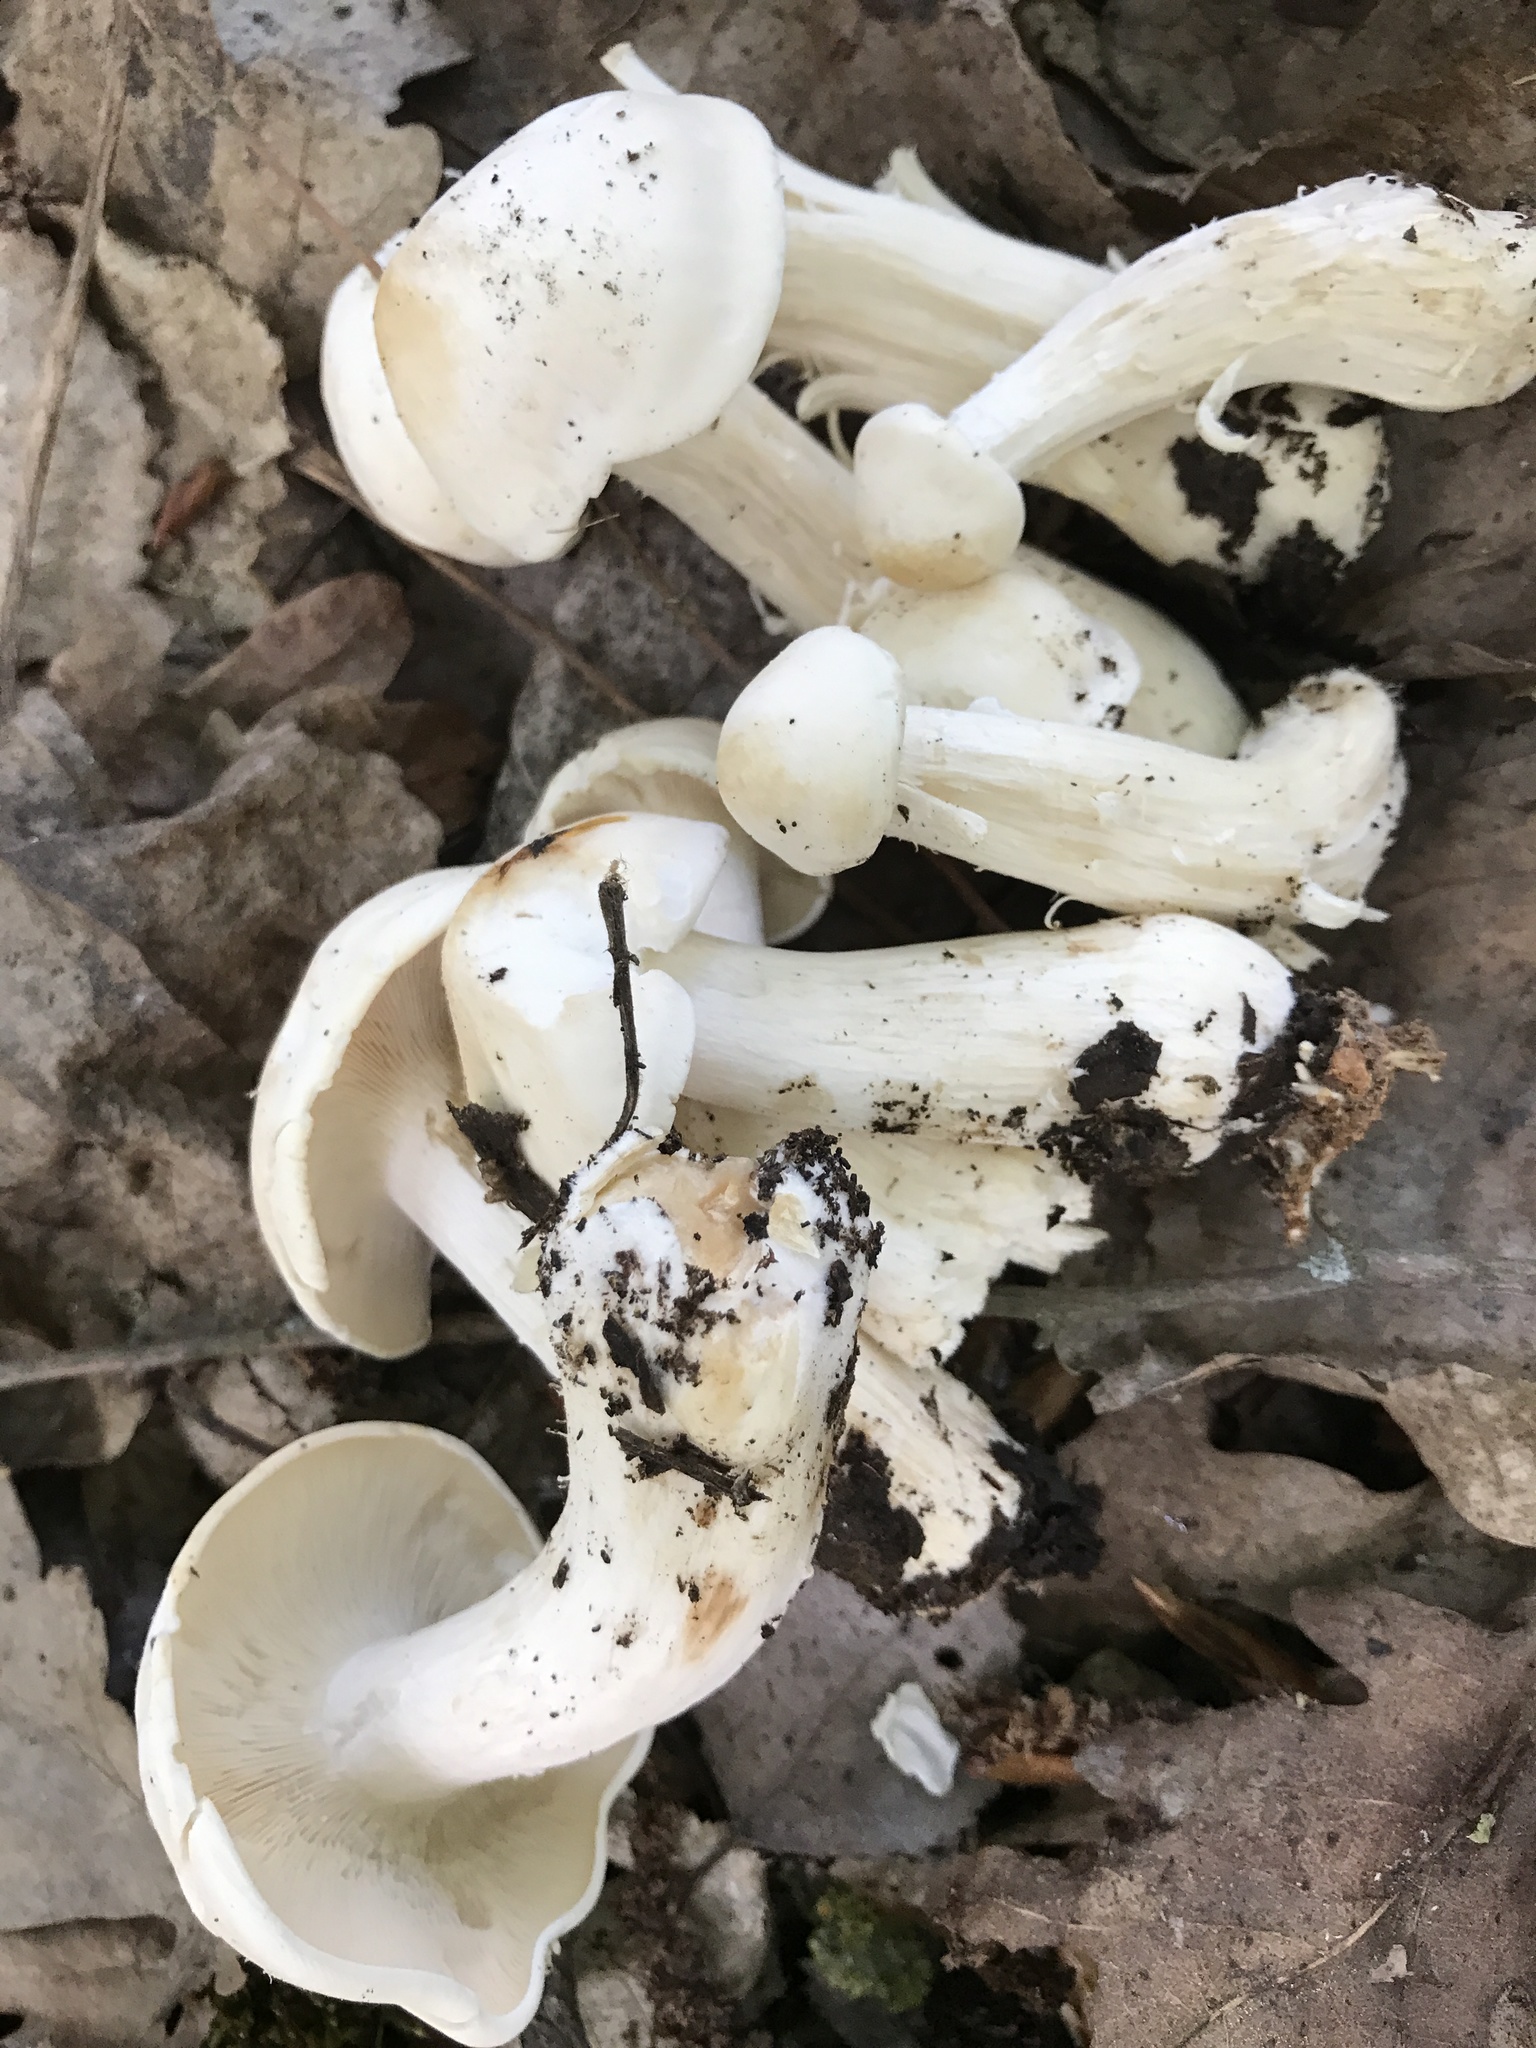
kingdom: Fungi
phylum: Basidiomycota
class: Agaricomycetes
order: Agaricales
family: Lyophyllaceae
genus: Calocybe
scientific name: Calocybe gambosa
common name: St. george's mushroom
